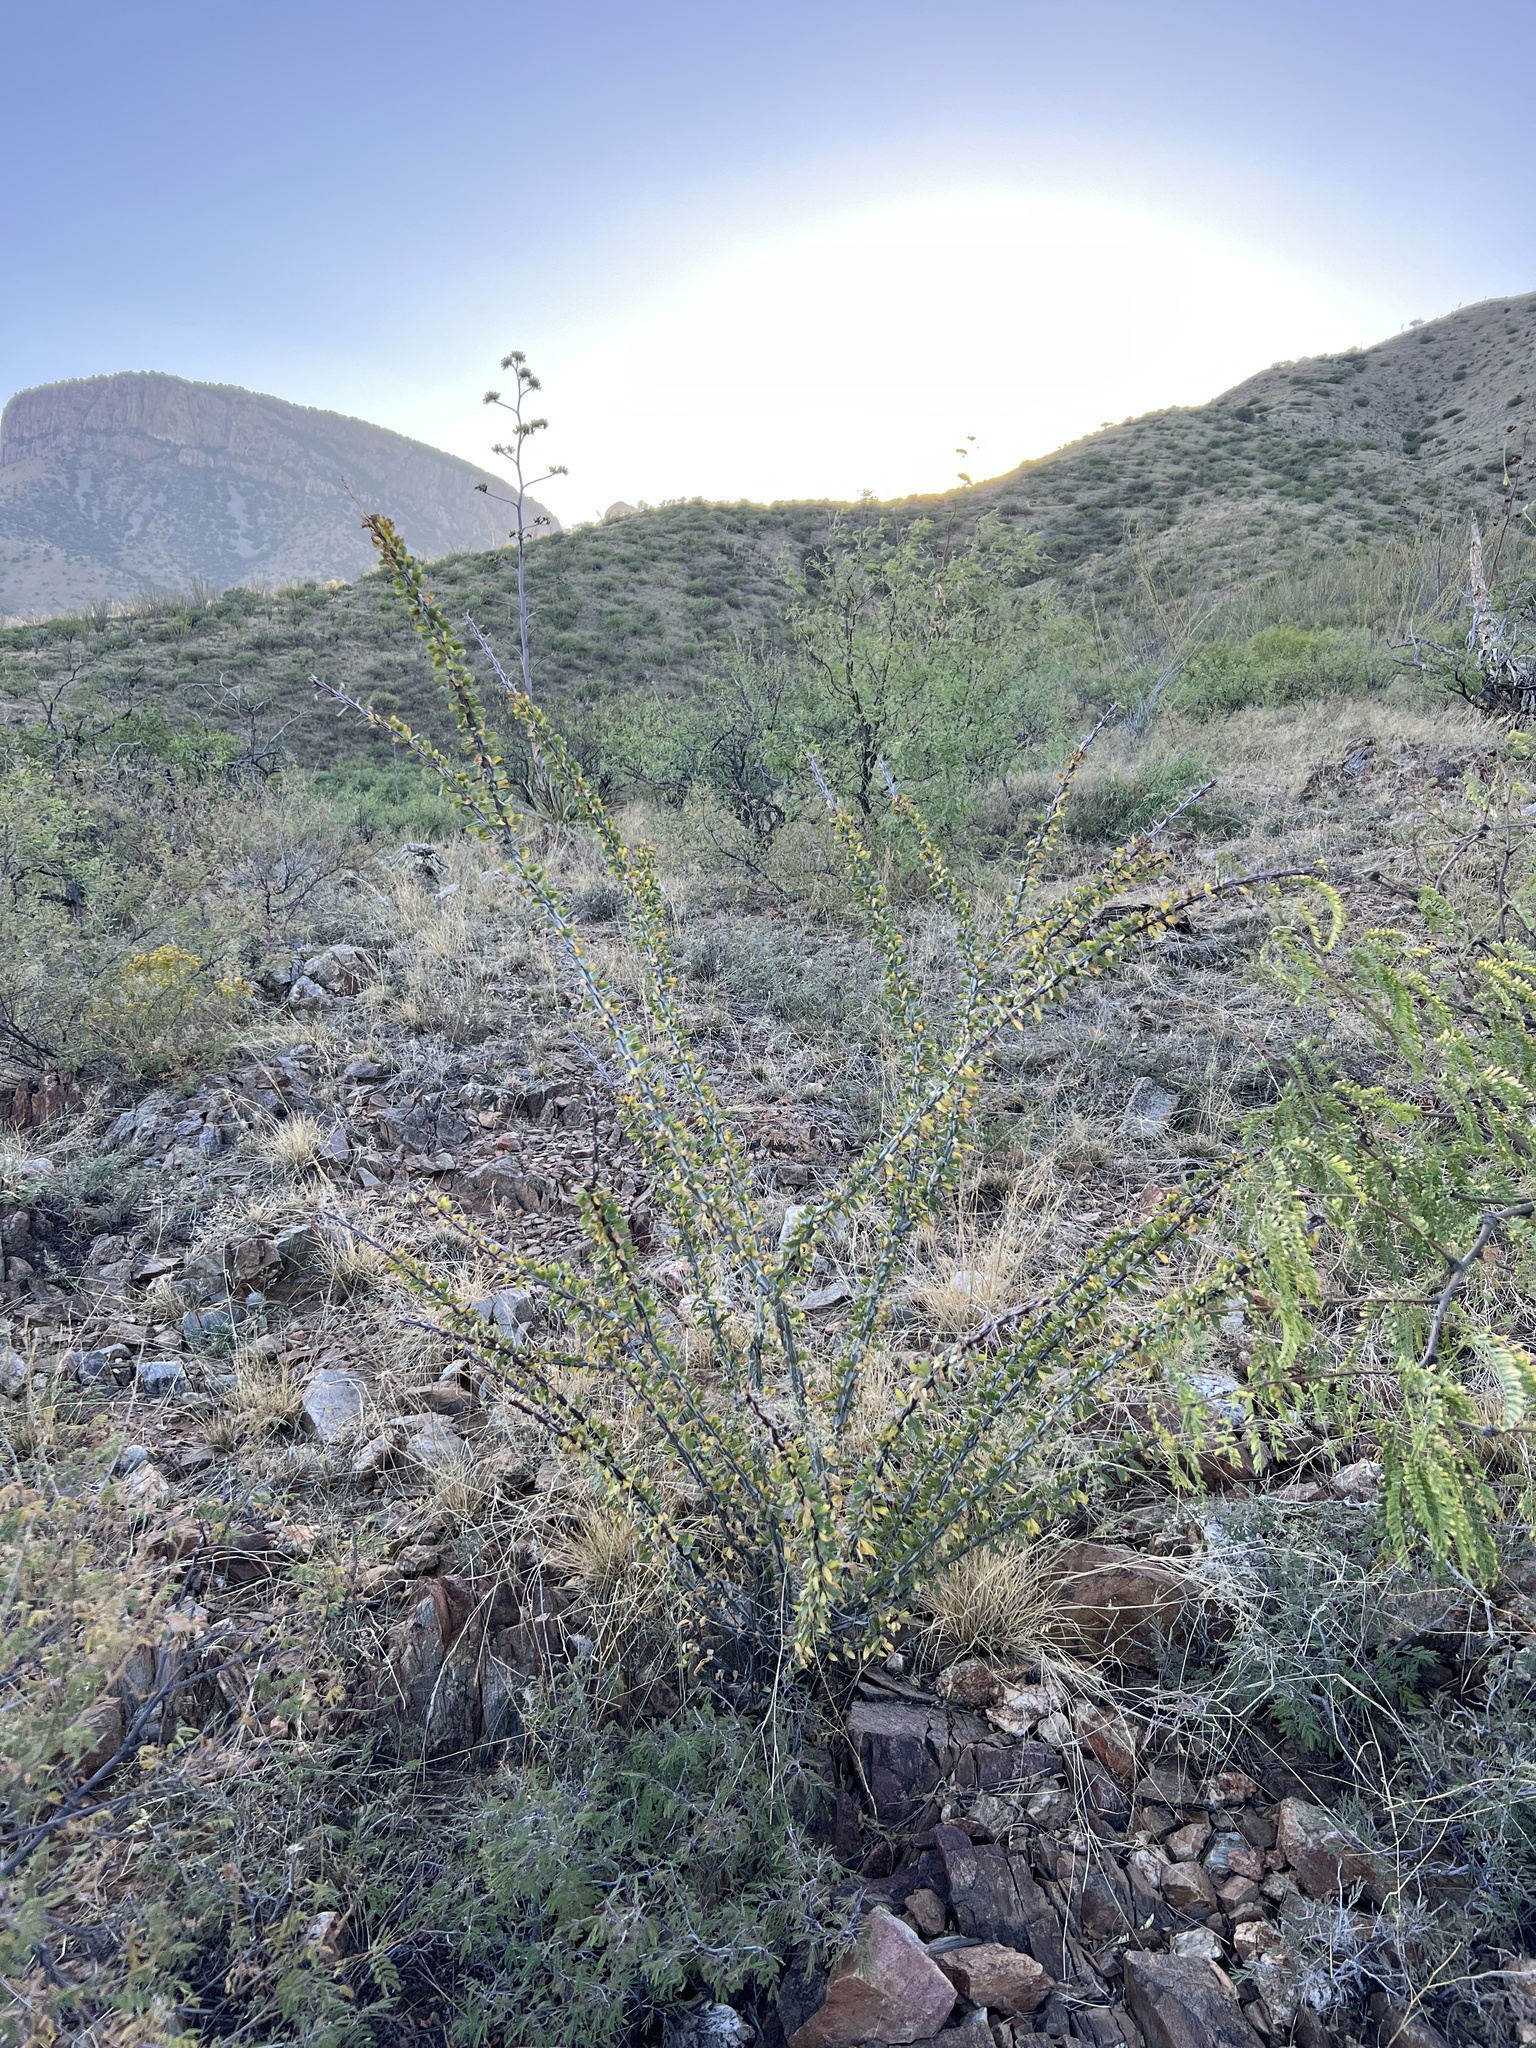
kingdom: Plantae
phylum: Tracheophyta
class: Magnoliopsida
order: Ericales
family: Fouquieriaceae
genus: Fouquieria
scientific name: Fouquieria splendens
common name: Vine-cactus
